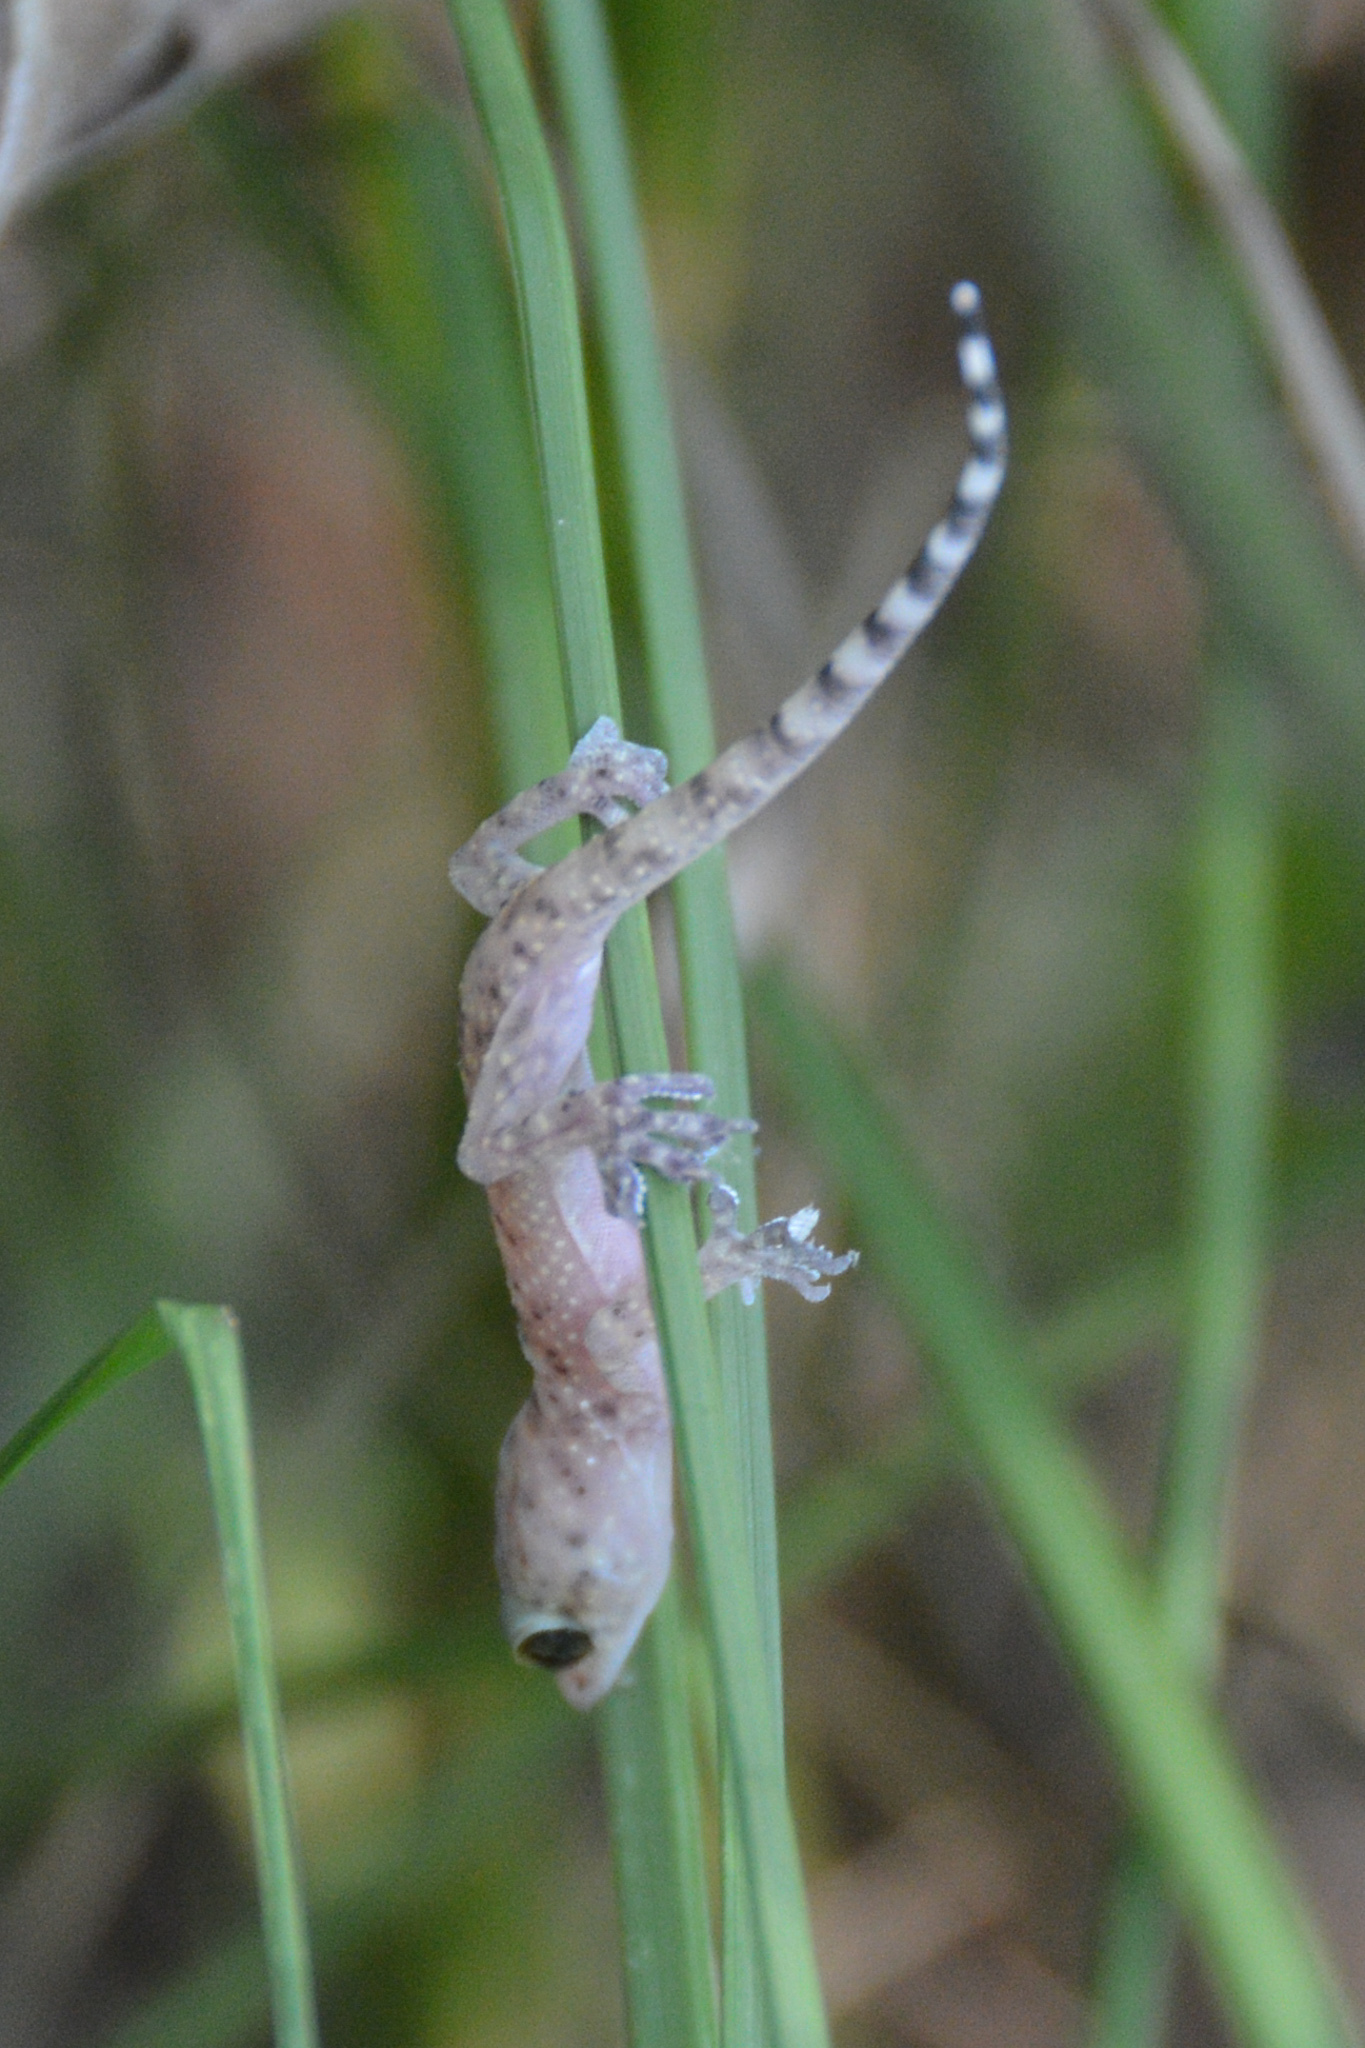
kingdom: Animalia
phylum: Chordata
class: Squamata
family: Gekkonidae
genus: Hemidactylus
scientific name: Hemidactylus turcicus
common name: Turkish gecko
